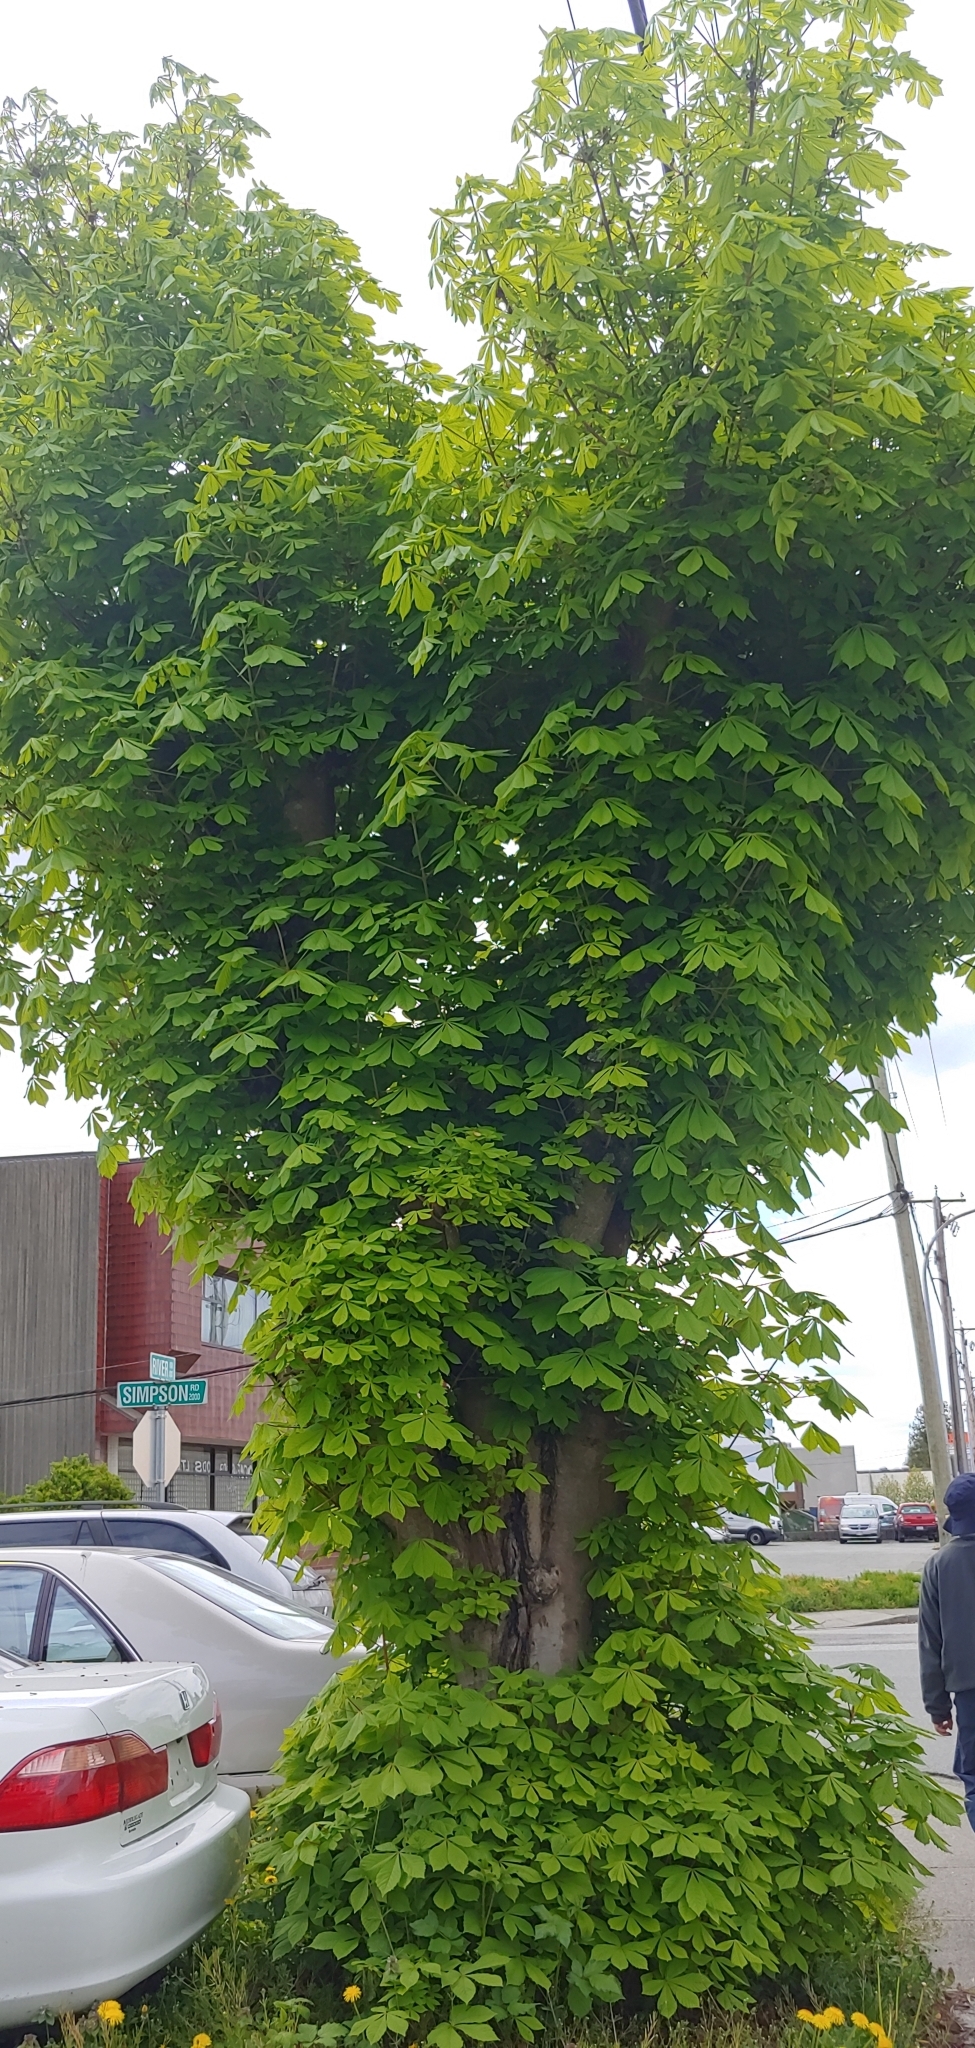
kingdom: Plantae
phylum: Tracheophyta
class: Magnoliopsida
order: Sapindales
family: Sapindaceae
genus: Aesculus
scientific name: Aesculus hippocastanum
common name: Horse-chestnut
